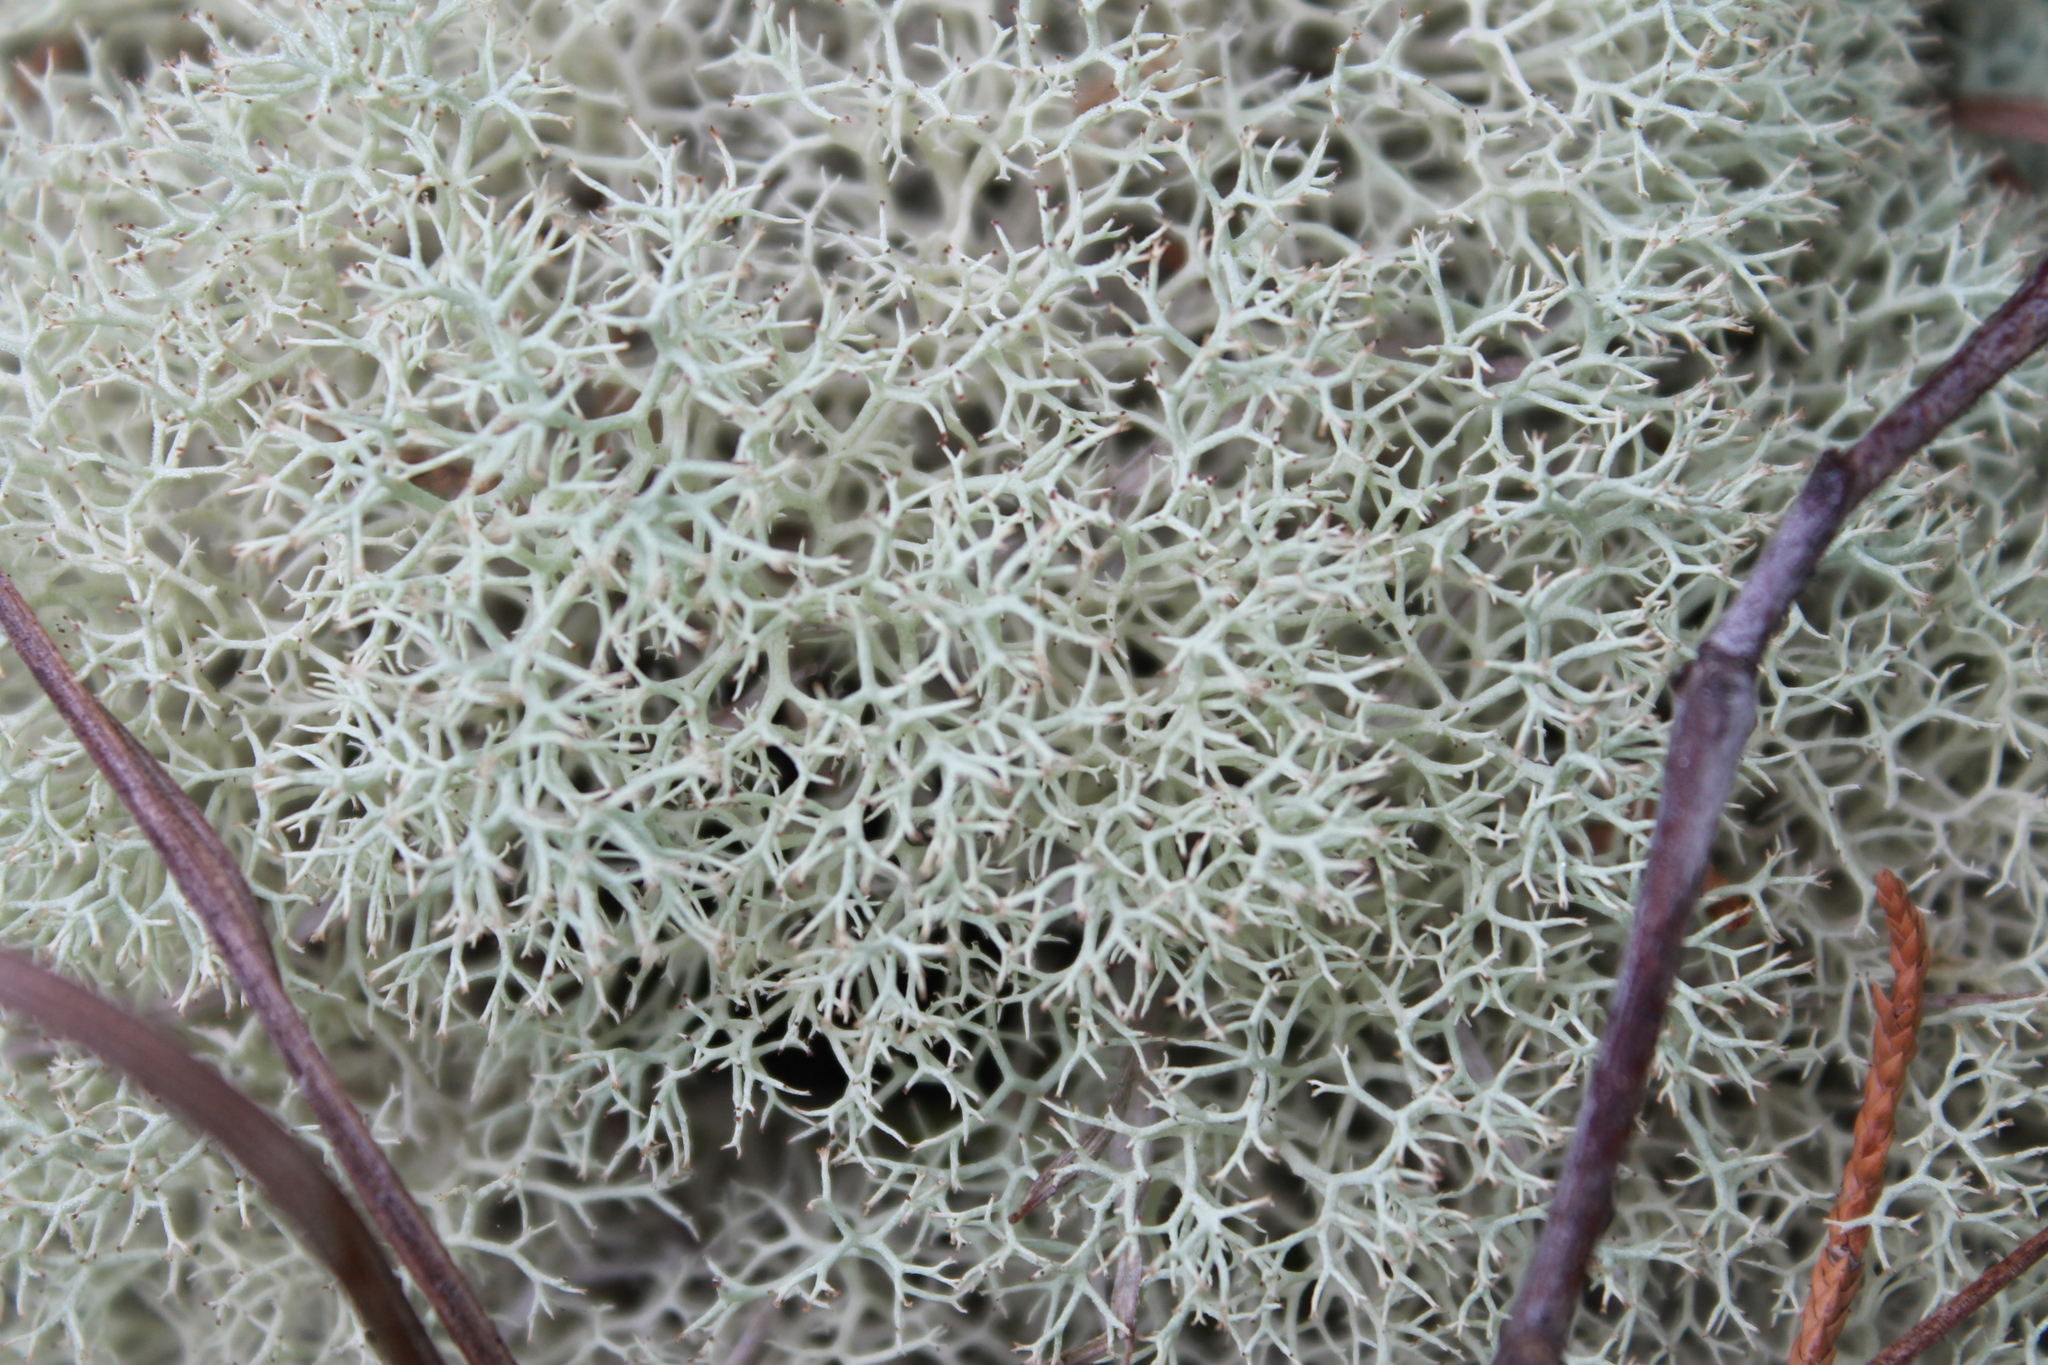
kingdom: Fungi
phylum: Ascomycota
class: Lecanoromycetes
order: Lecanorales
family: Cladoniaceae
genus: Cladonia
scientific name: Cladonia subtenuis
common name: Dixie reindeer lichen
